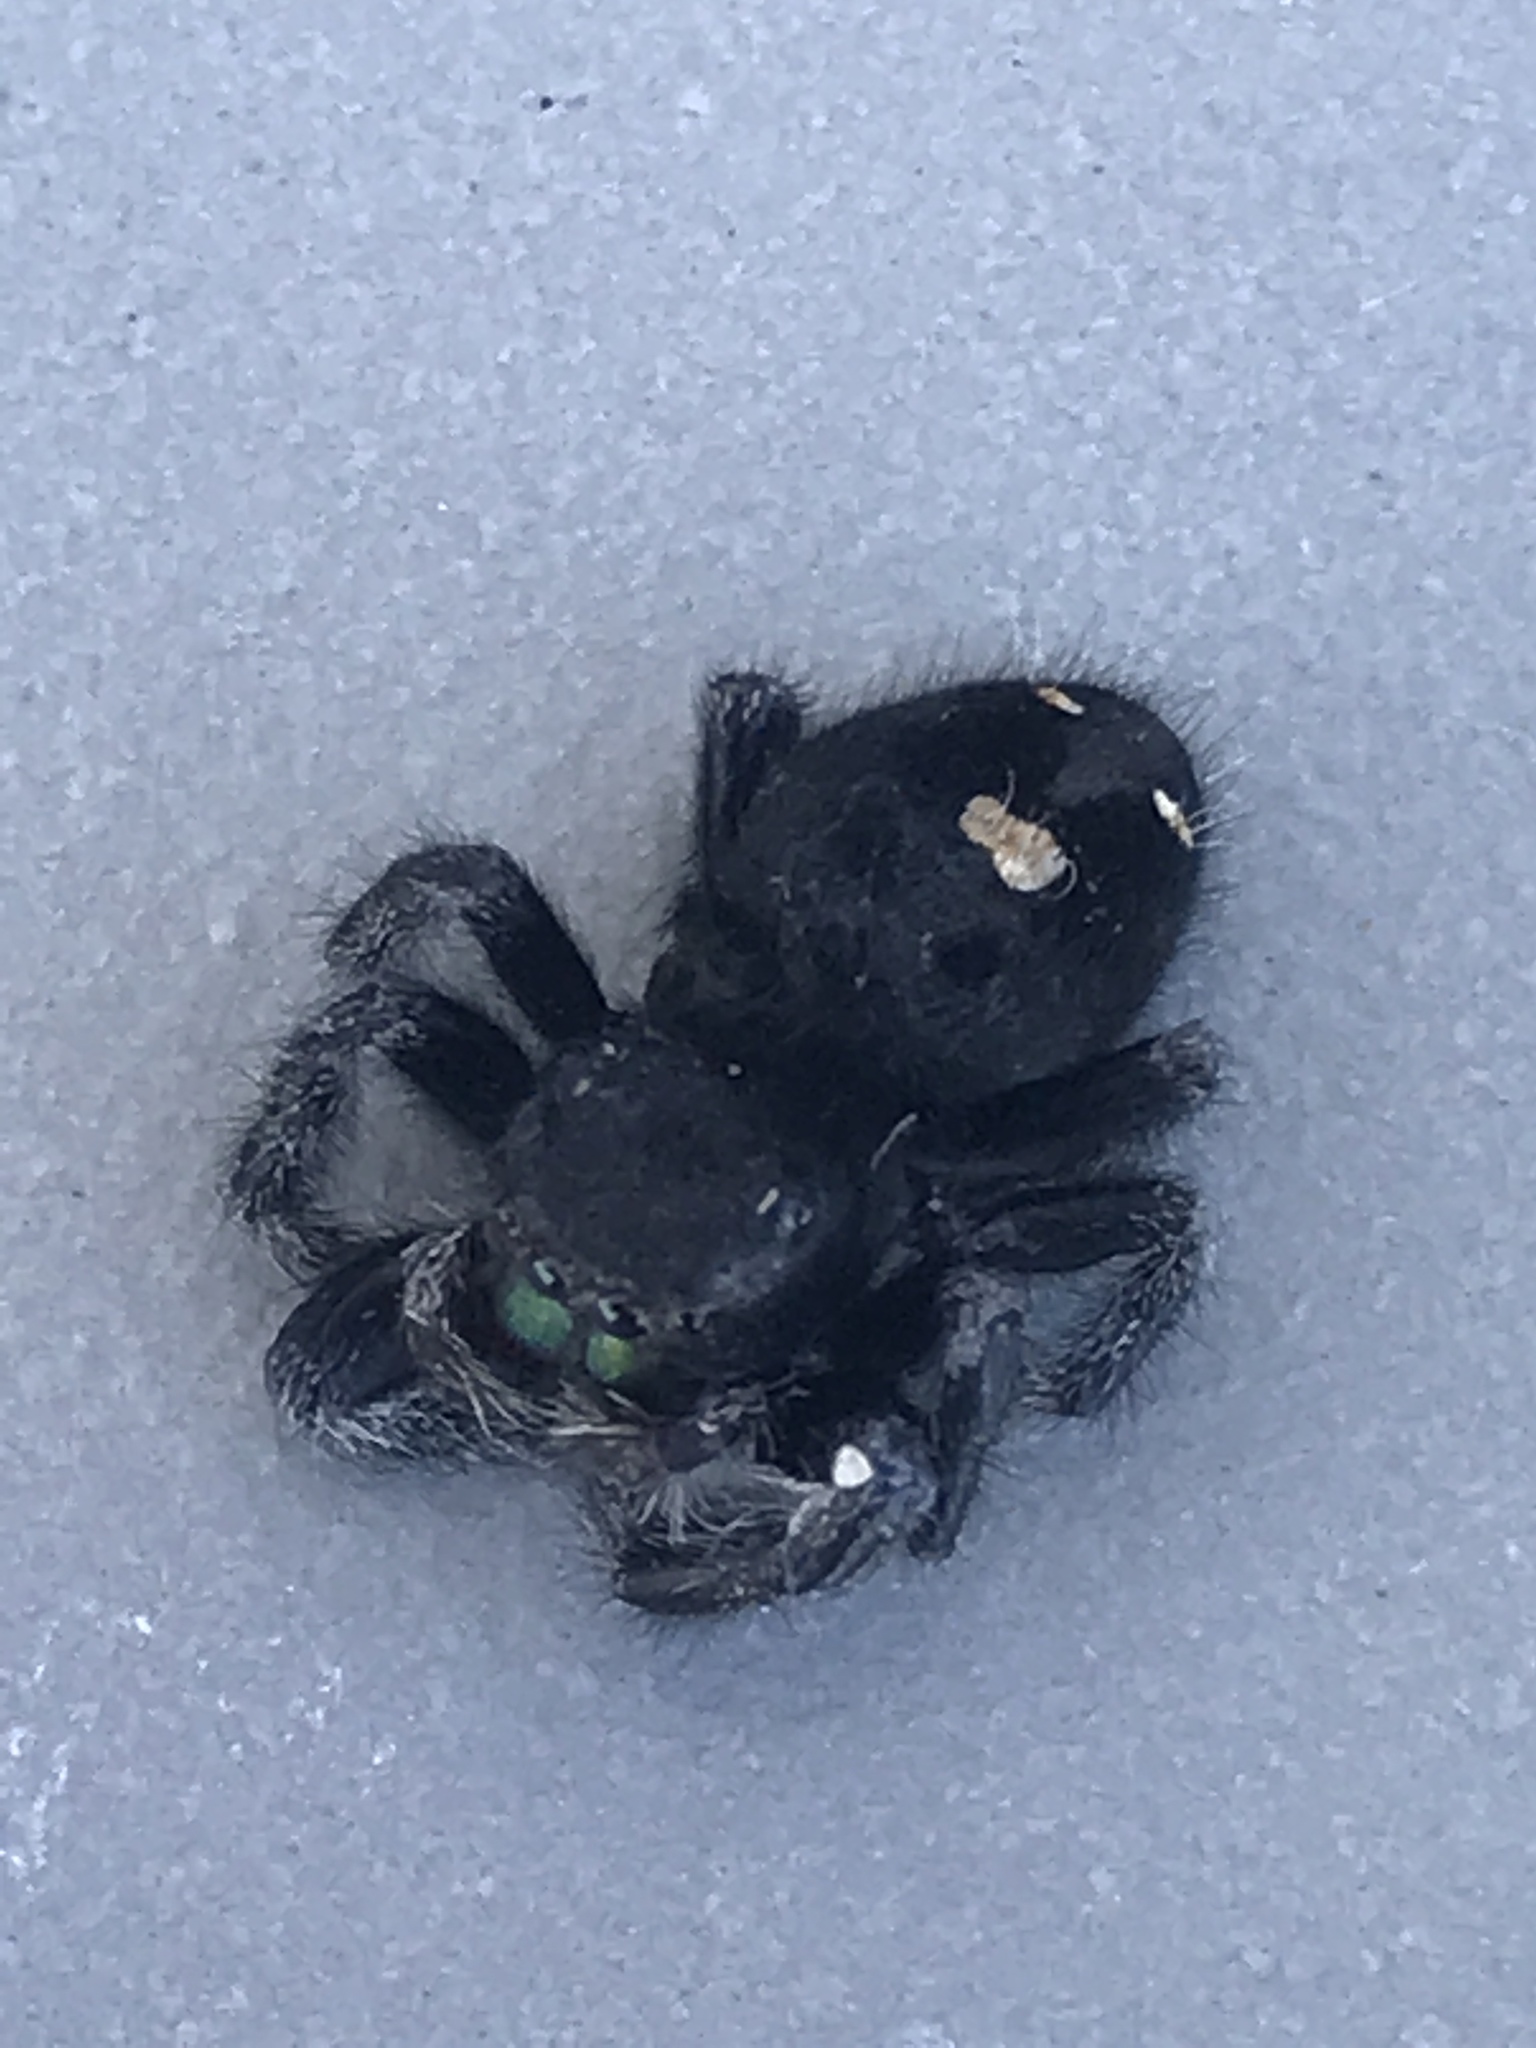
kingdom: Animalia
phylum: Arthropoda
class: Arachnida
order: Araneae
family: Salticidae
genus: Phidippus
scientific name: Phidippus audax
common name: Bold jumper
